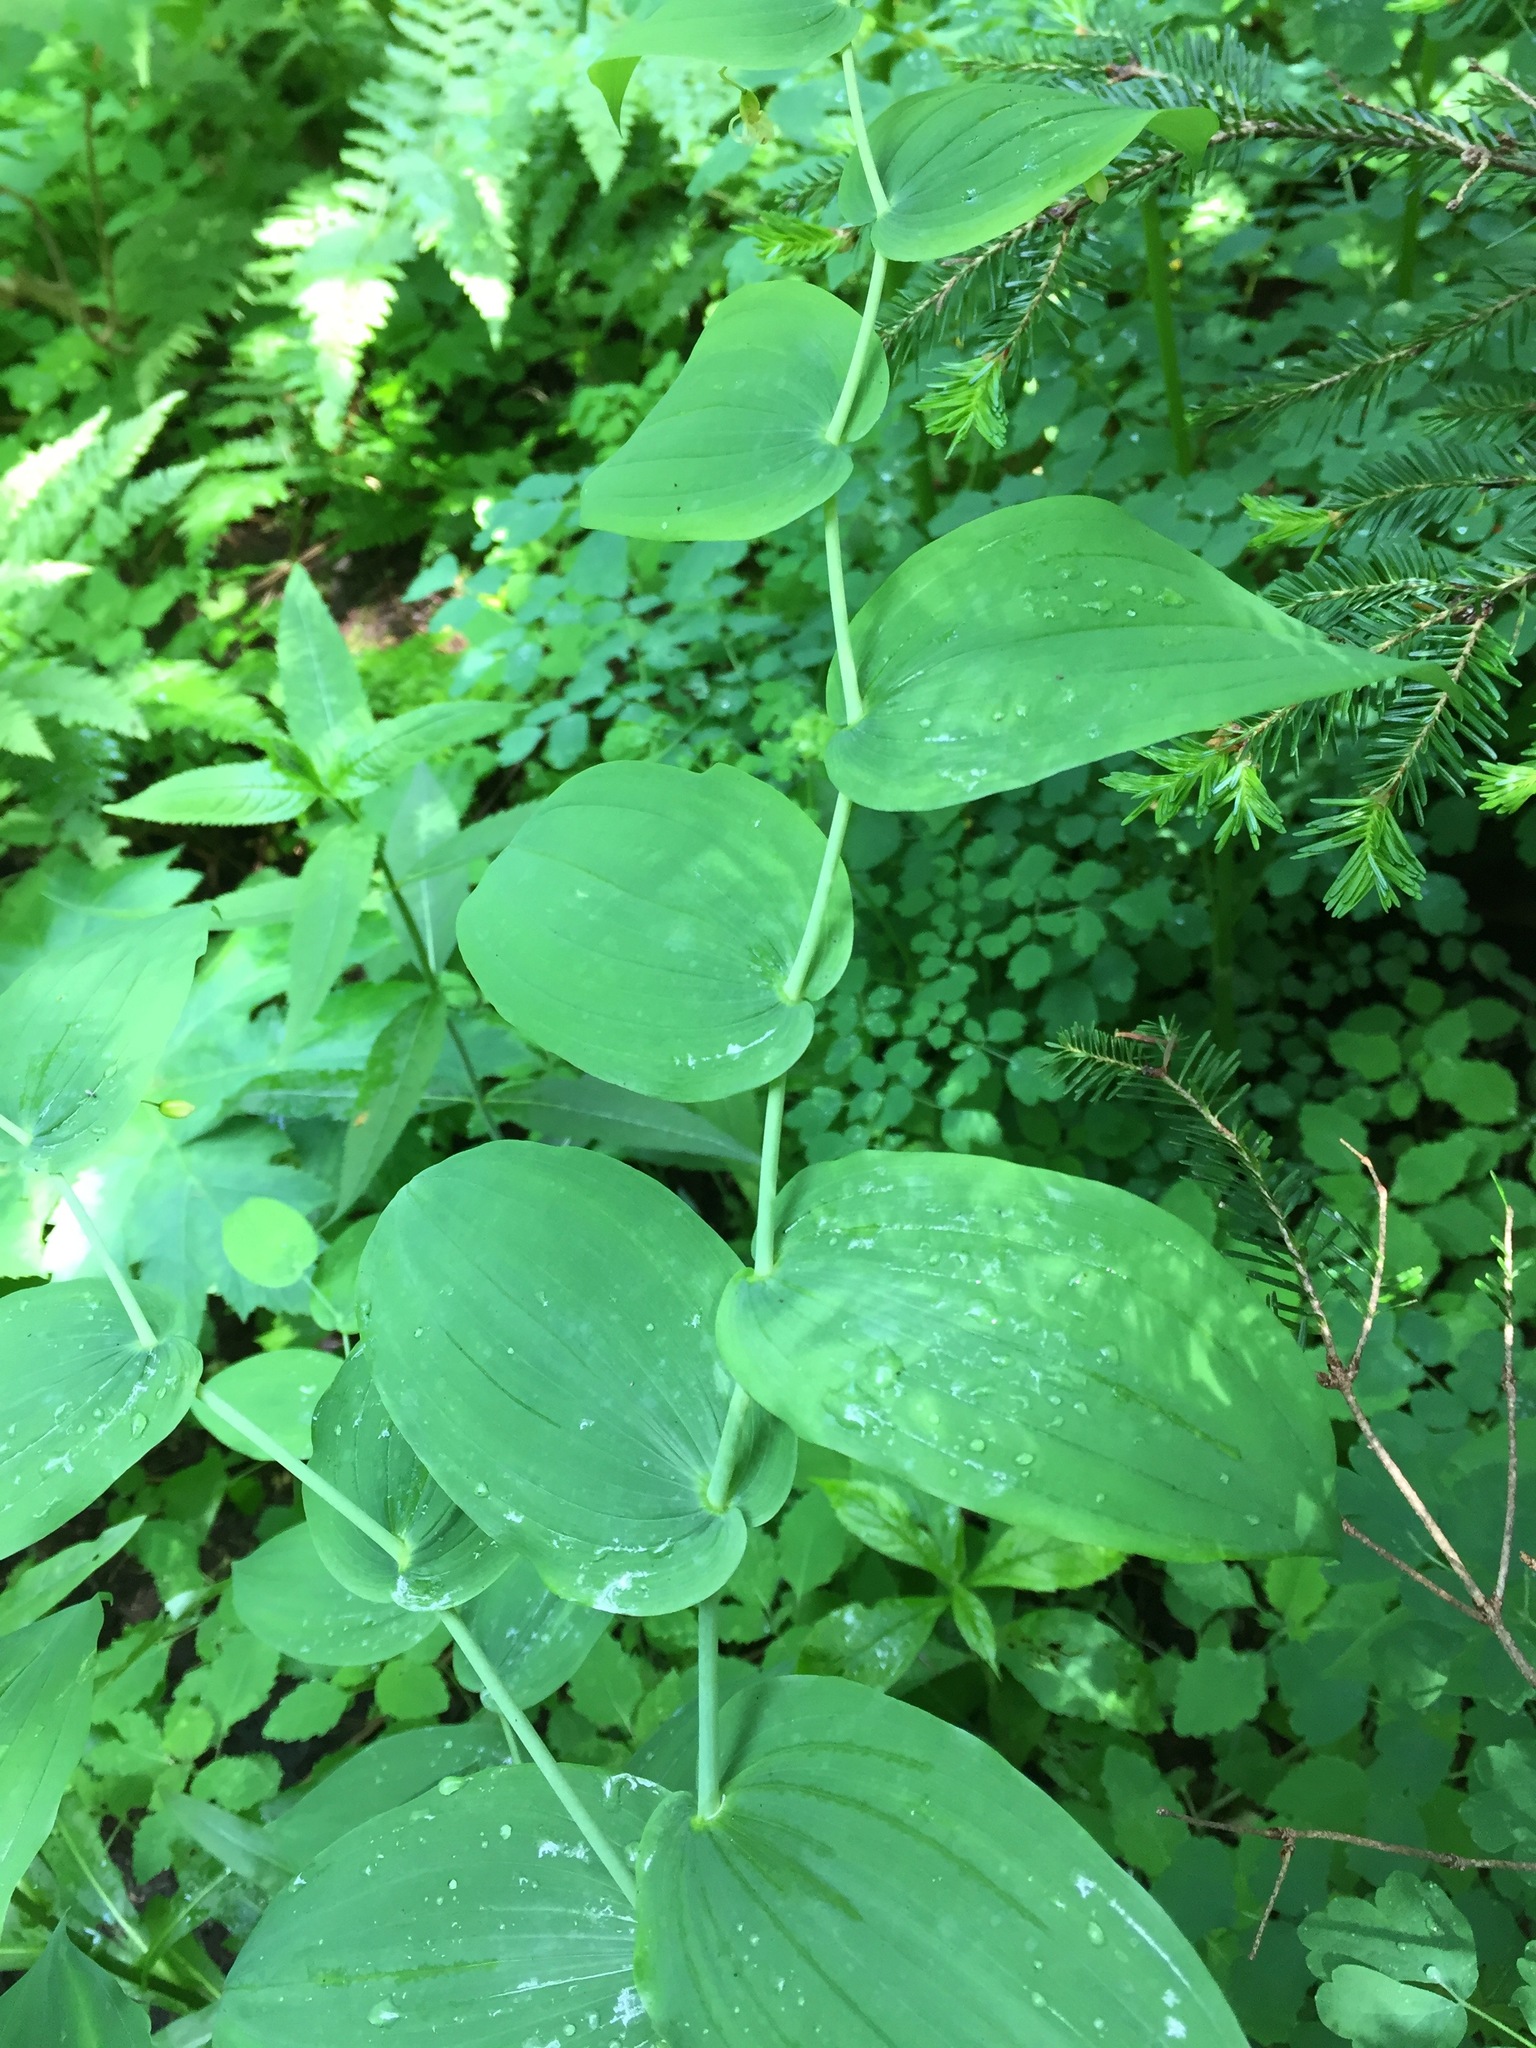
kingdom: Plantae
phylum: Tracheophyta
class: Liliopsida
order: Liliales
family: Liliaceae
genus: Streptopus
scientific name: Streptopus amplexifolius
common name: Clasp twisted stalk
